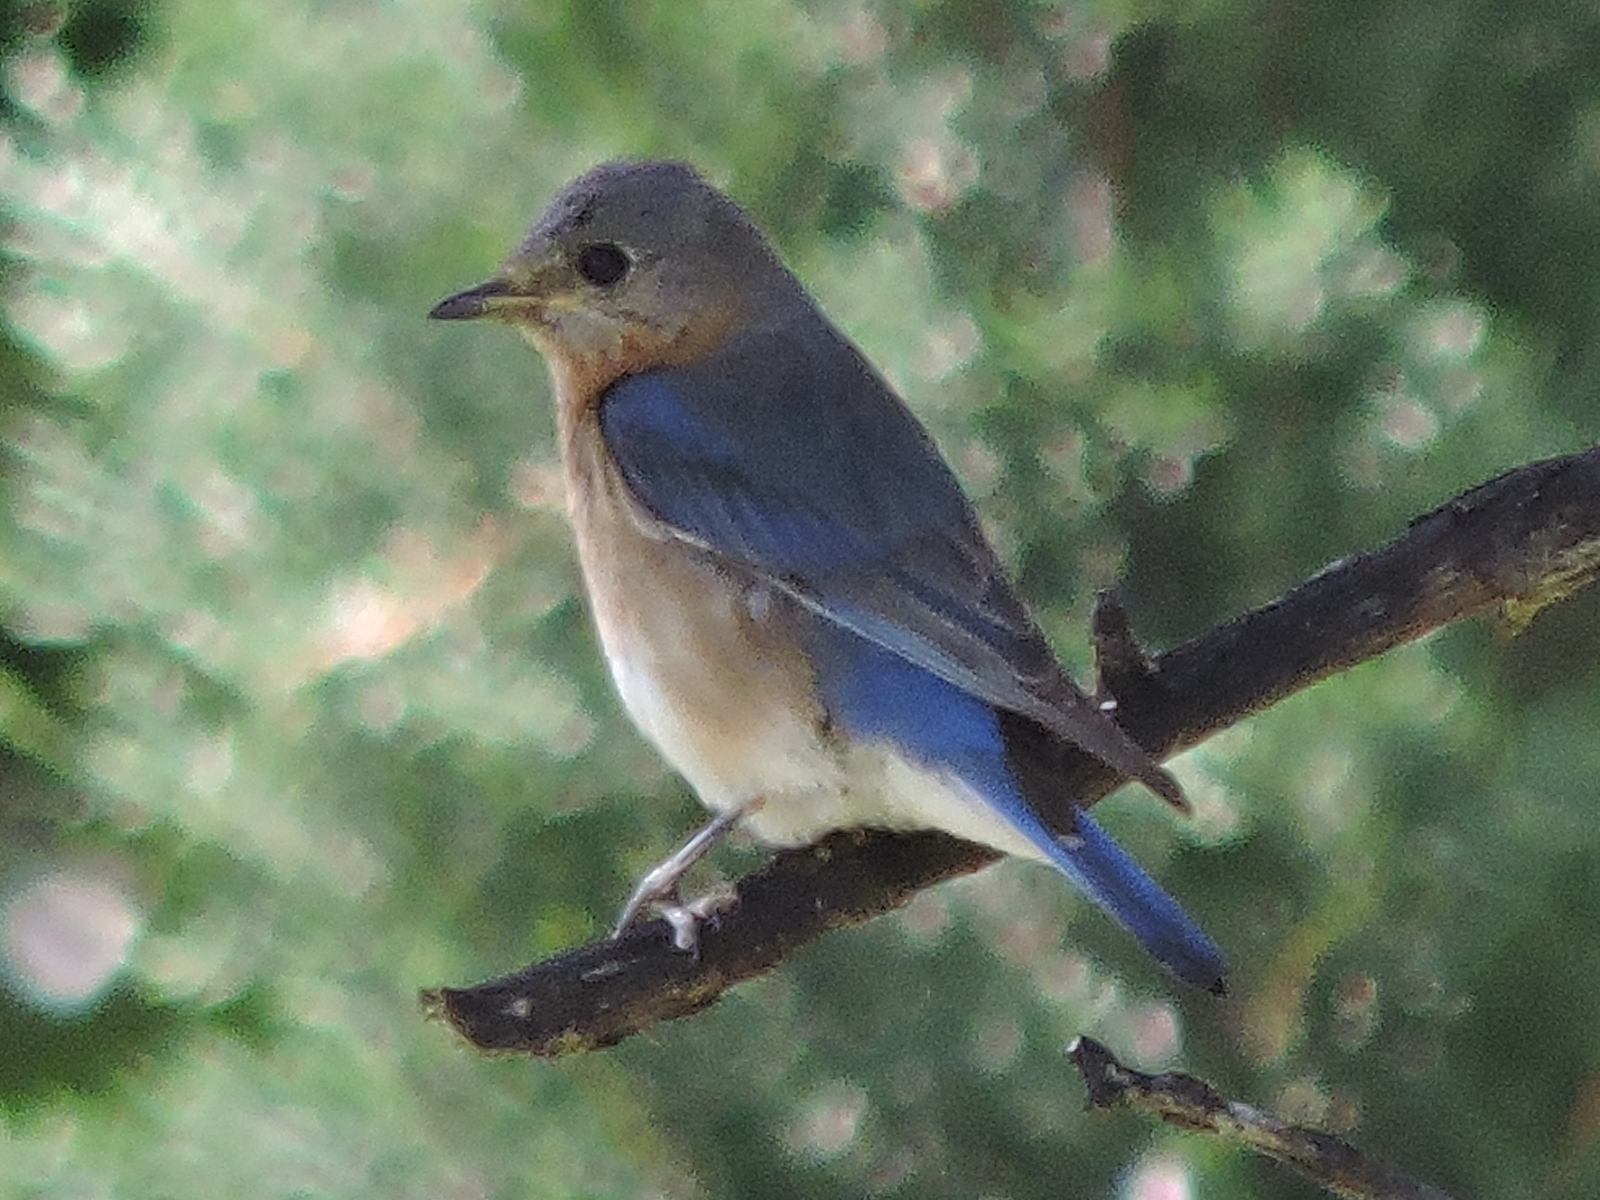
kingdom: Animalia
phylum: Chordata
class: Aves
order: Passeriformes
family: Turdidae
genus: Sialia
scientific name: Sialia sialis
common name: Eastern bluebird
